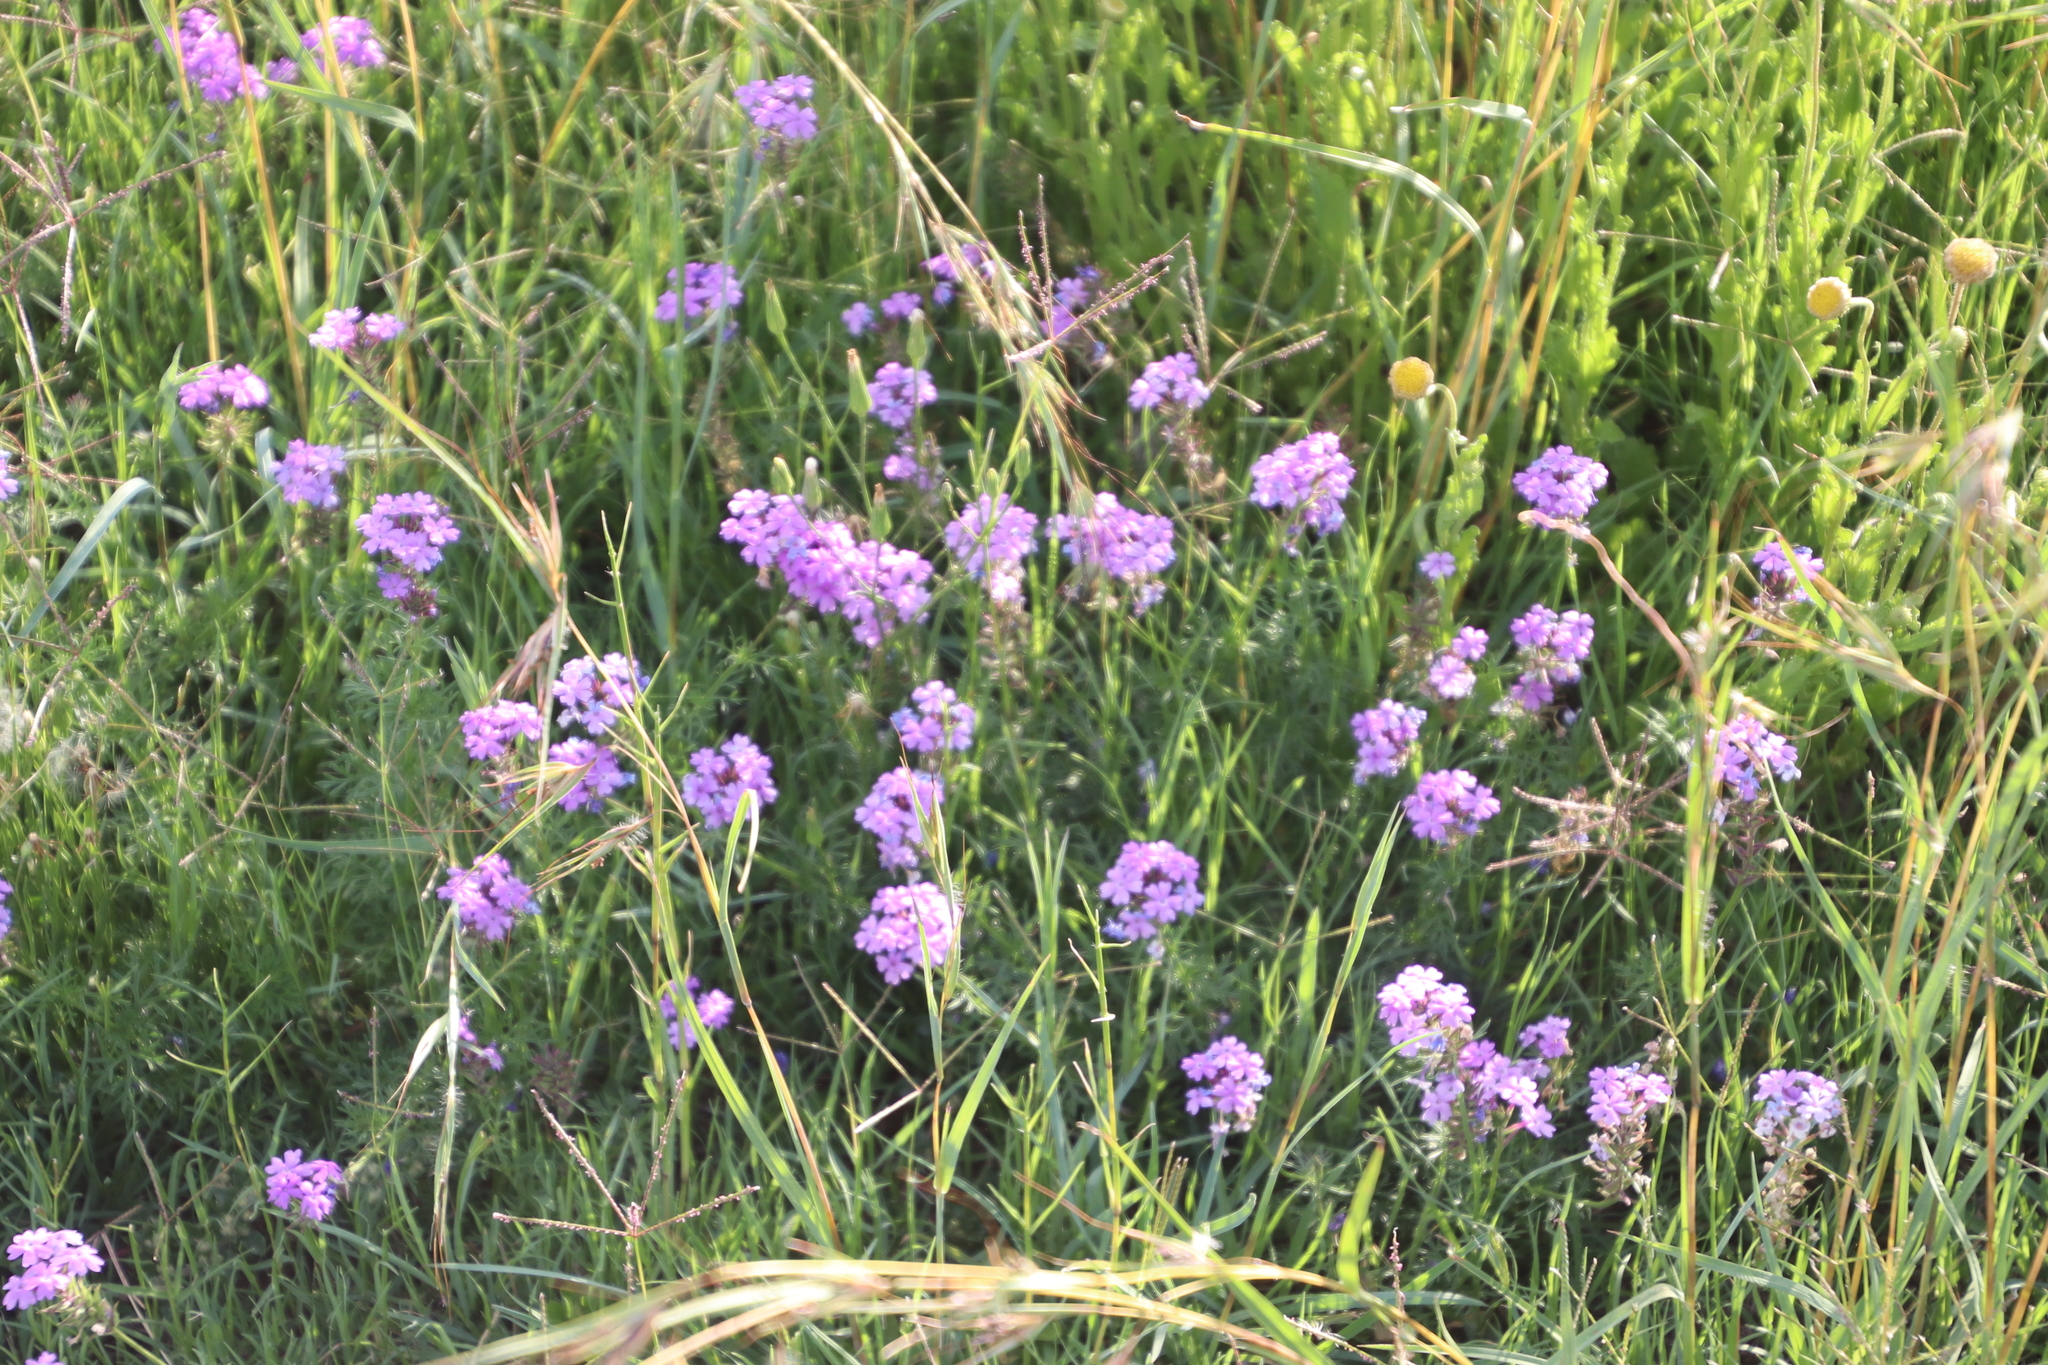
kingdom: Plantae
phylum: Tracheophyta
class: Magnoliopsida
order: Lamiales
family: Verbenaceae
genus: Verbena
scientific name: Verbena aristigera
